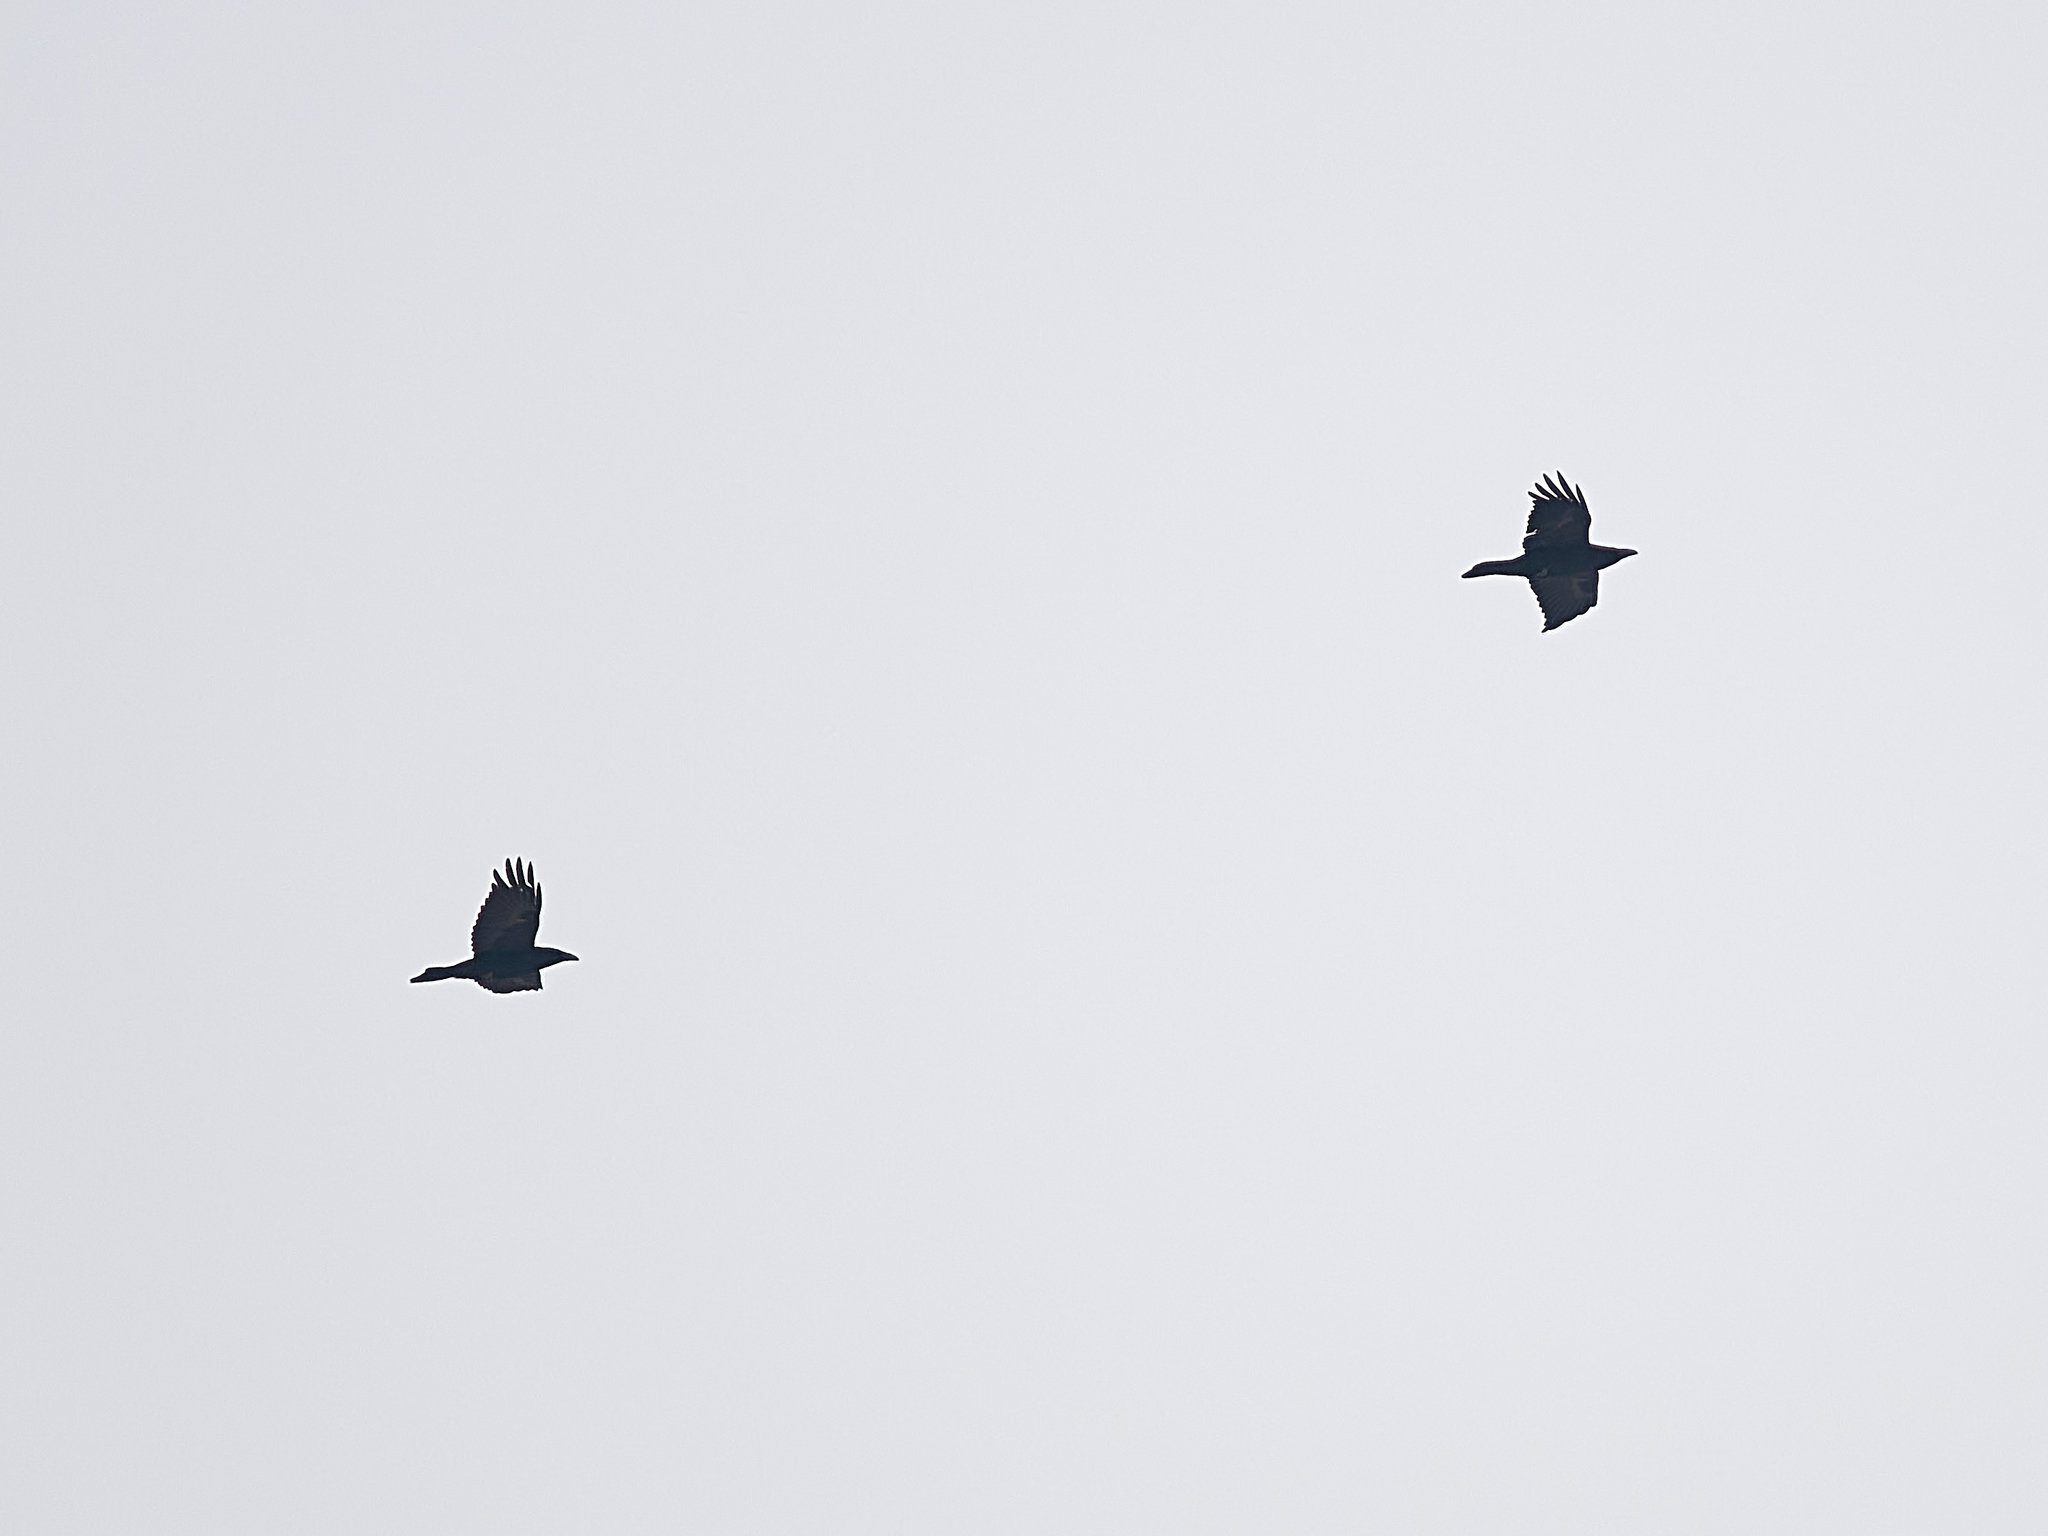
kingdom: Animalia
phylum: Chordata
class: Aves
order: Passeriformes
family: Corvidae
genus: Corvus
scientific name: Corvus corax
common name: Common raven
